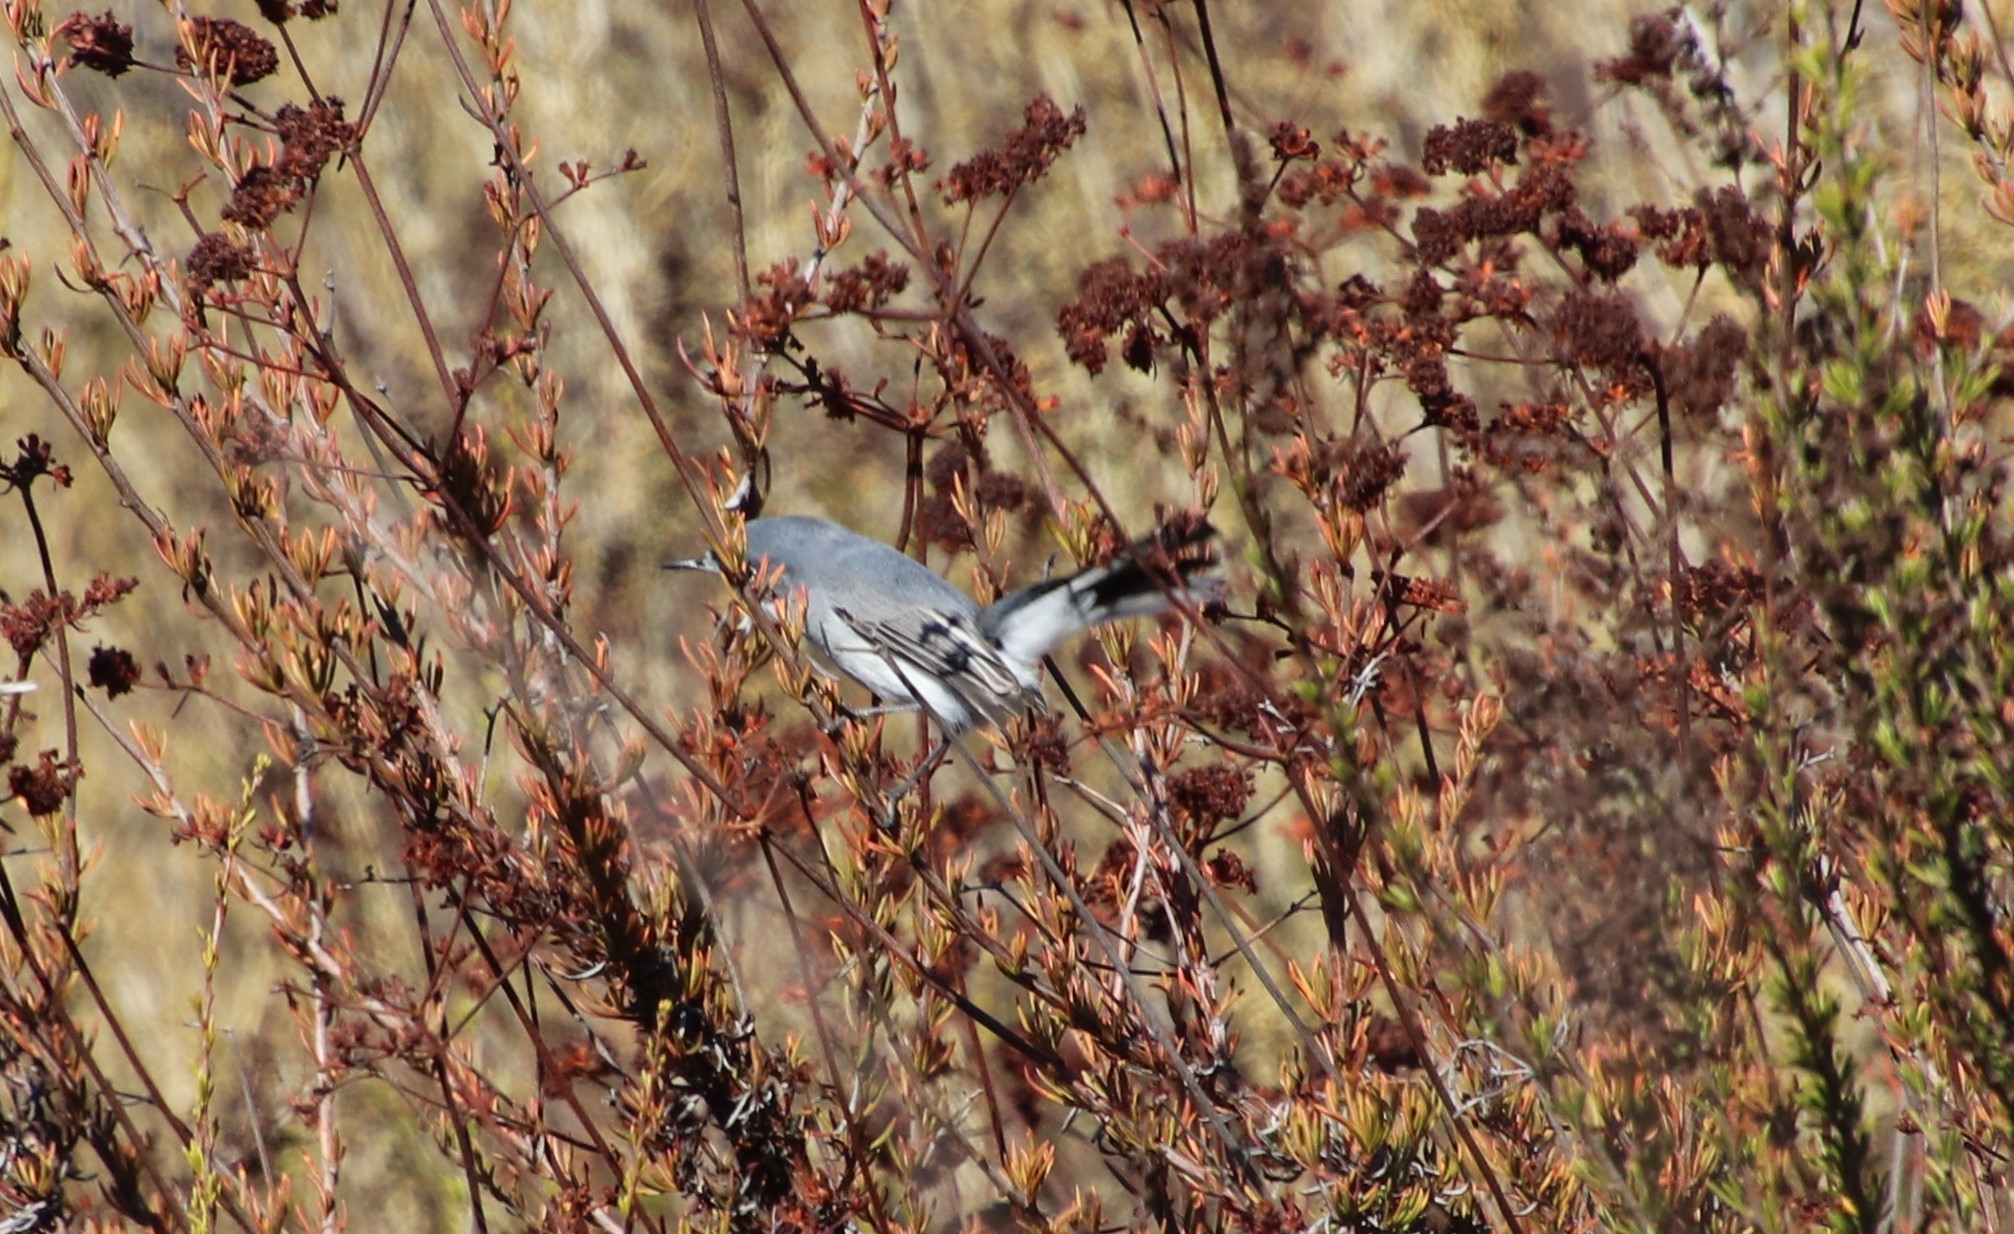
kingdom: Animalia
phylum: Chordata
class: Aves
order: Passeriformes
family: Polioptilidae
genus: Polioptila
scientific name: Polioptila caerulea
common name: Blue-gray gnatcatcher
